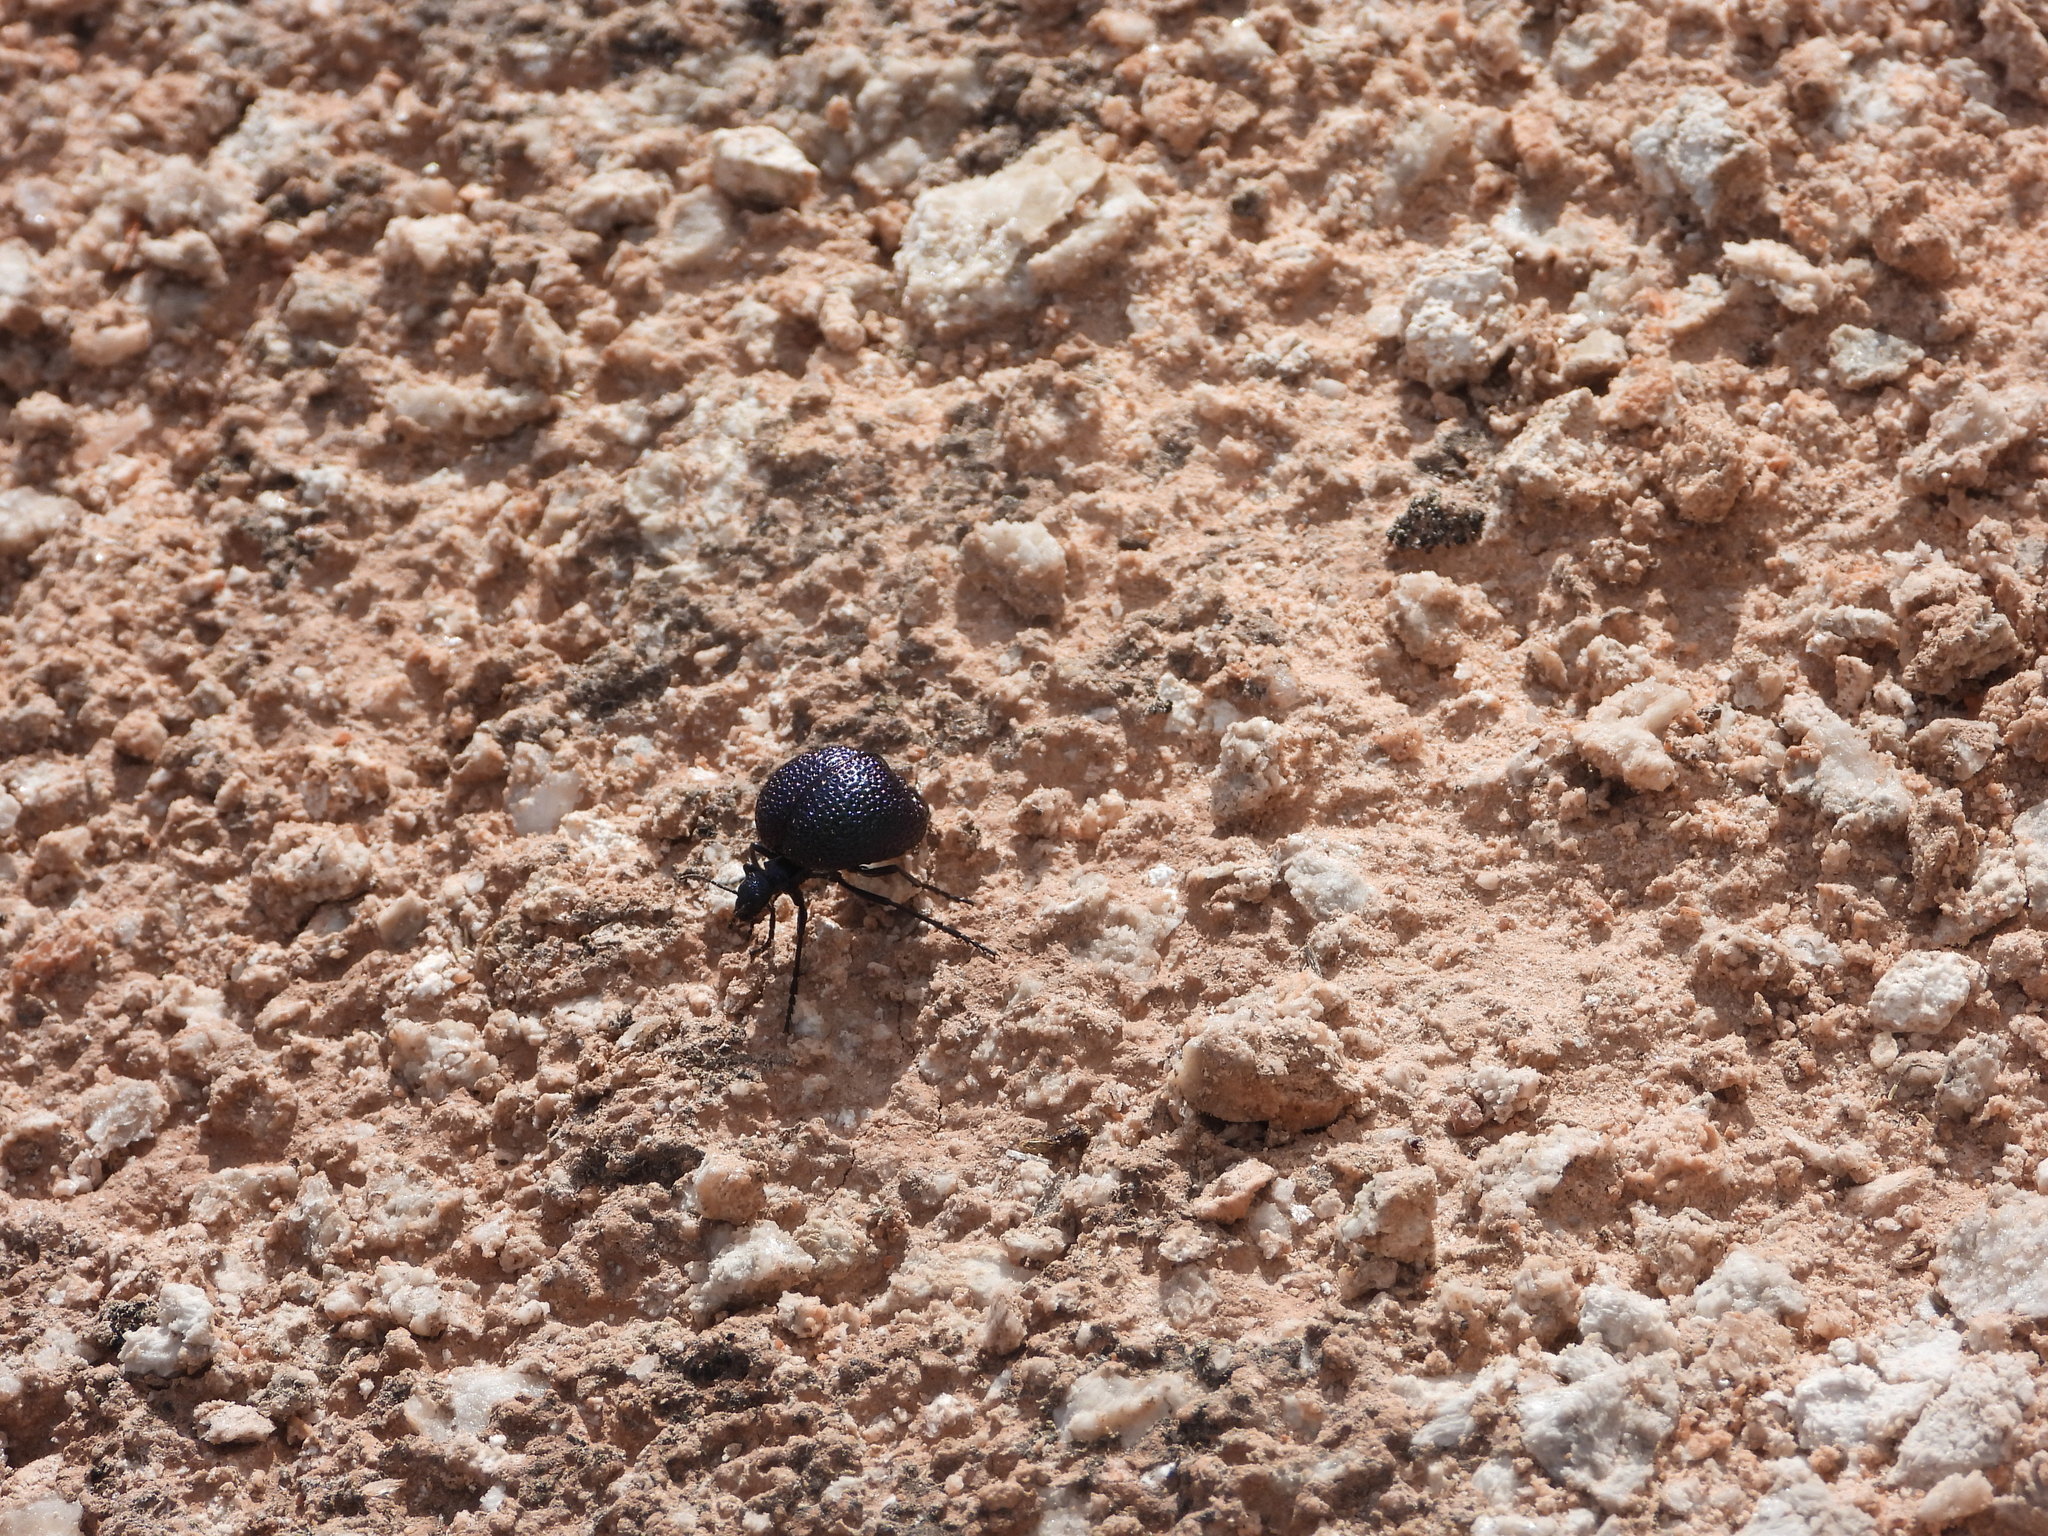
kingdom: Animalia
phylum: Arthropoda
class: Insecta
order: Coleoptera
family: Meloidae
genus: Cysteodemus
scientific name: Cysteodemus wislizeni
